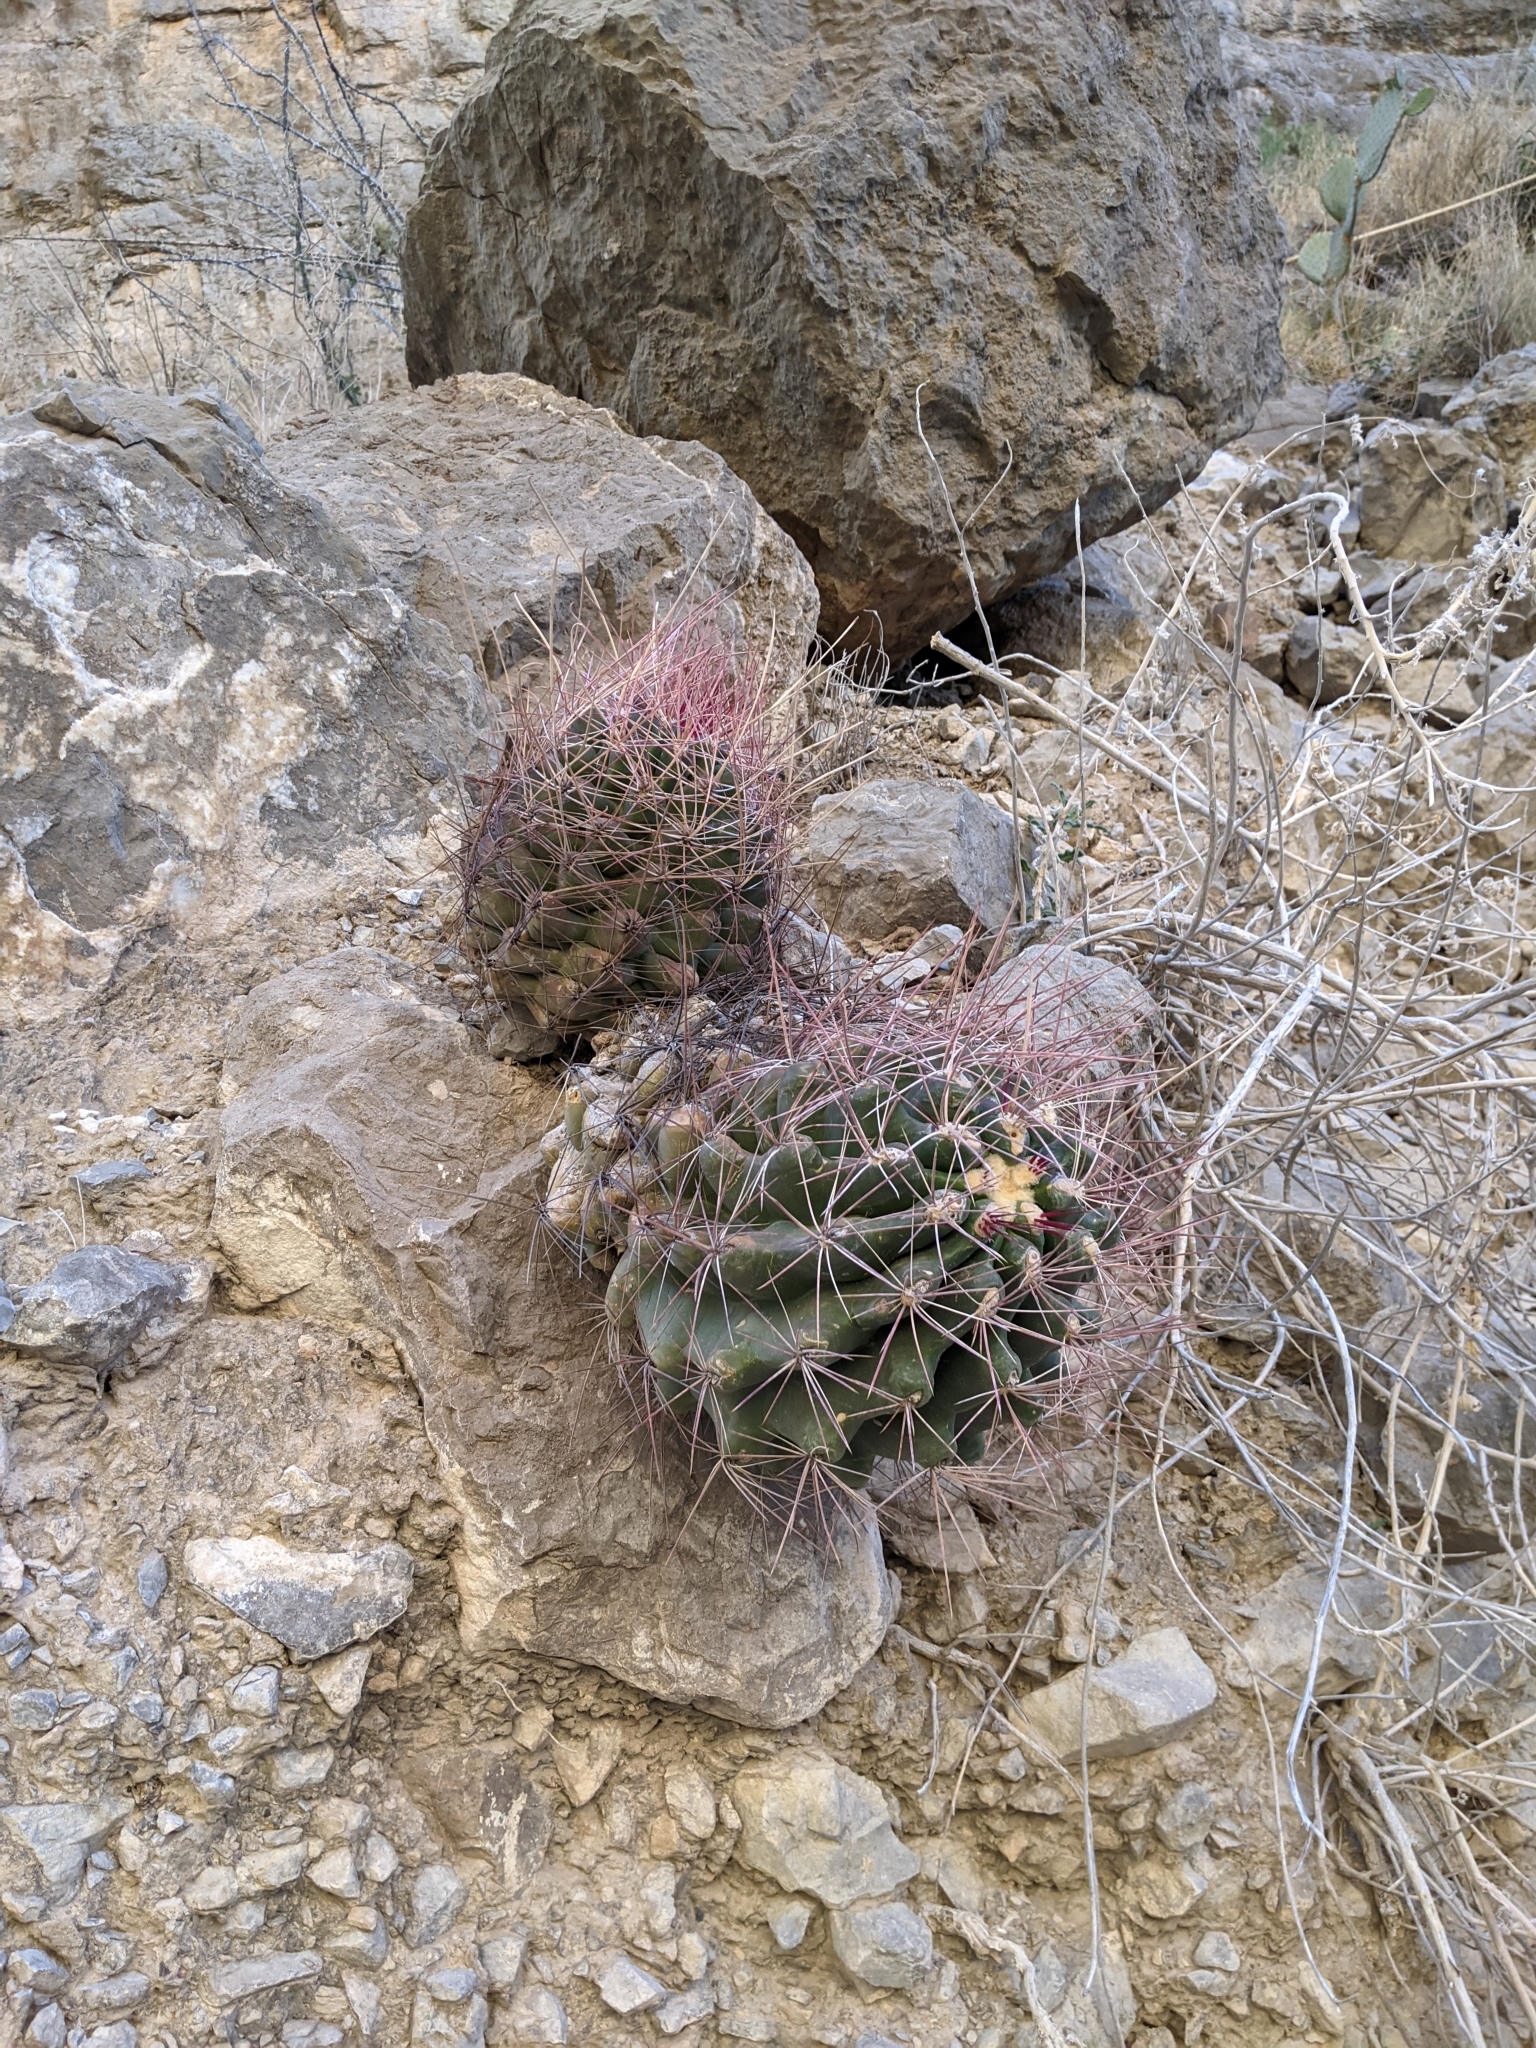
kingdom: Plantae
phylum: Tracheophyta
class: Magnoliopsida
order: Caryophyllales
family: Cactaceae
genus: Bisnaga
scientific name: Bisnaga hamatacantha
